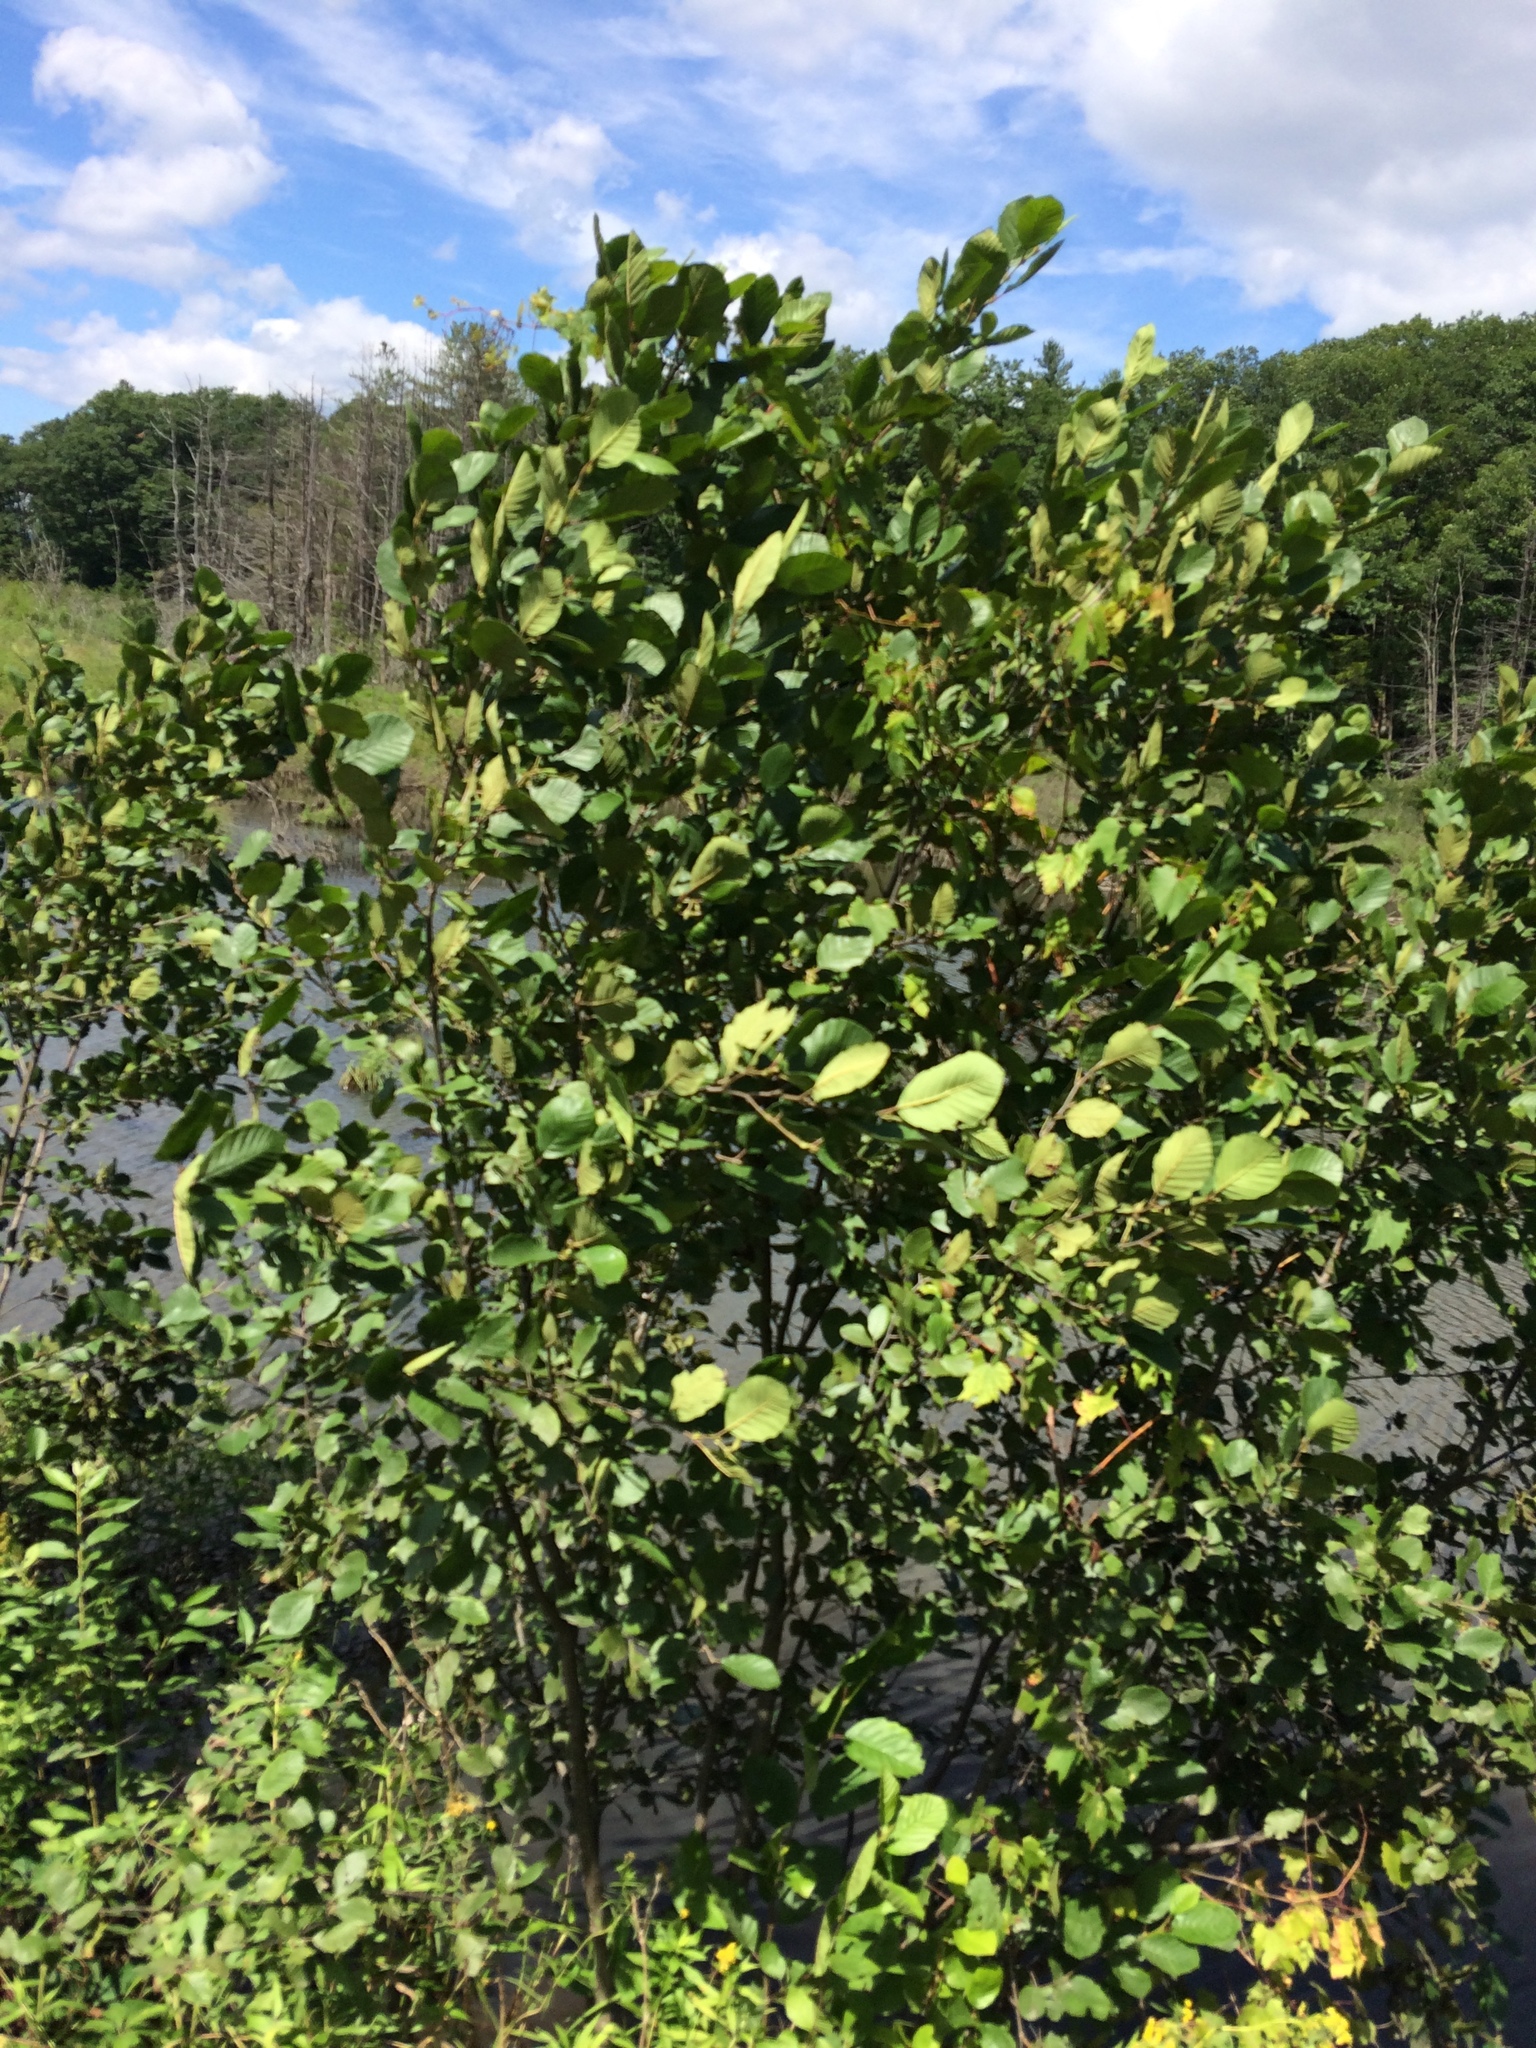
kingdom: Plantae
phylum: Tracheophyta
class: Magnoliopsida
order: Fagales
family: Betulaceae
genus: Alnus
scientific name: Alnus incana
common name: Grey alder
